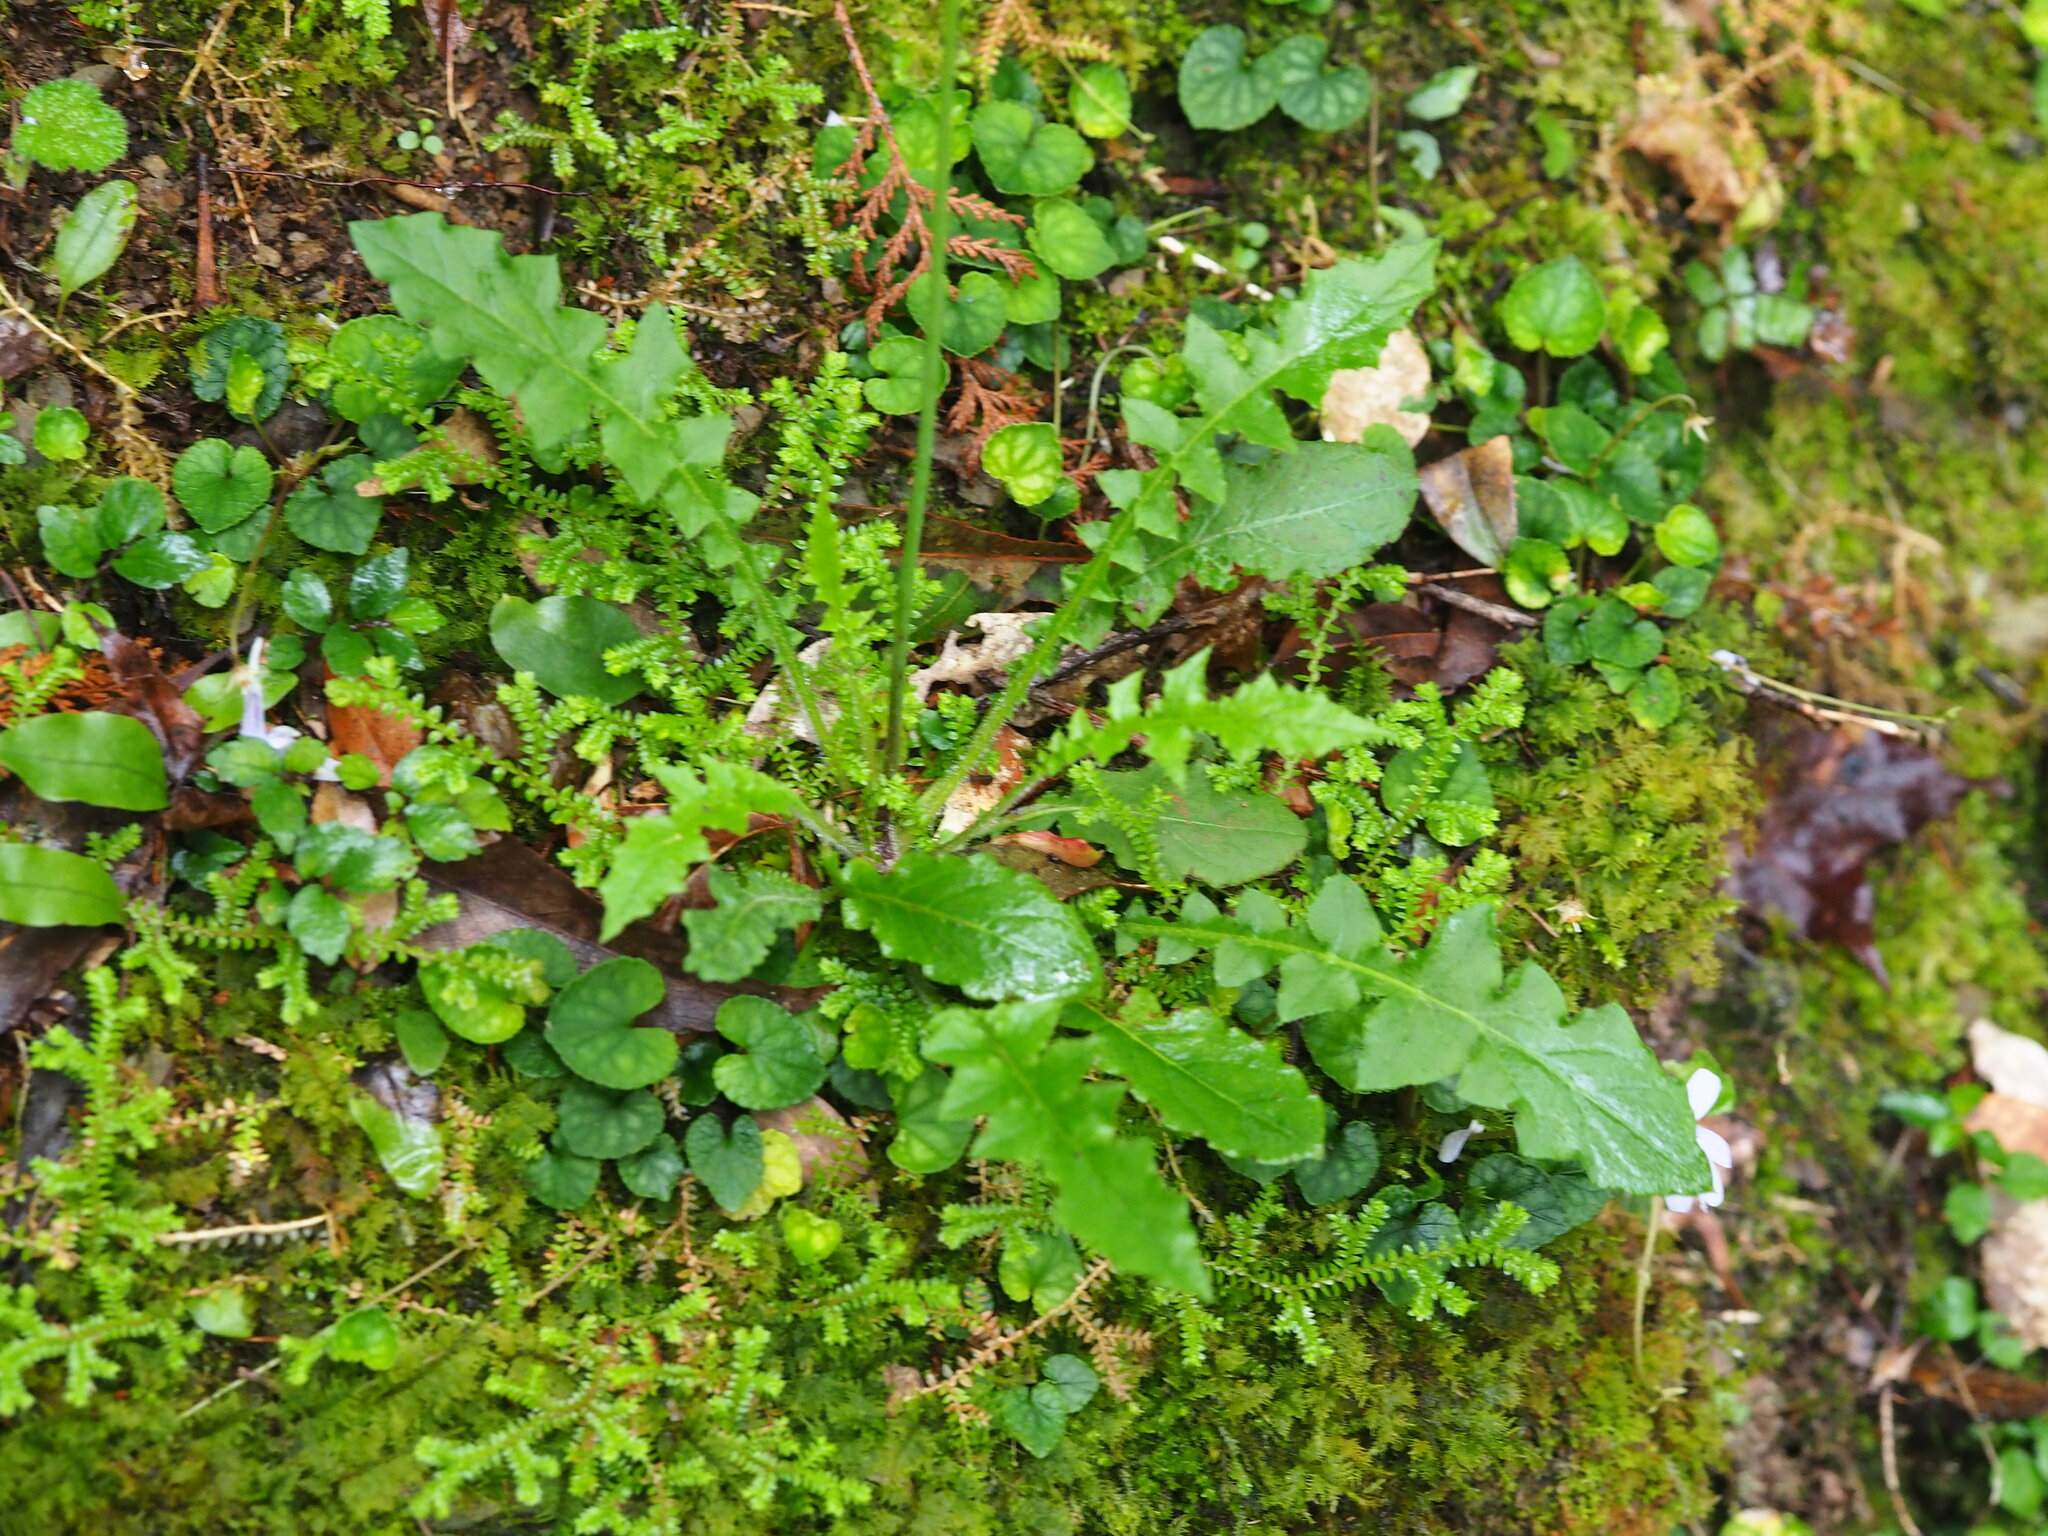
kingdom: Plantae
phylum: Tracheophyta
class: Magnoliopsida
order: Asterales
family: Asteraceae
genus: Youngia
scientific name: Youngia japonica
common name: Oriental false hawksbeard
